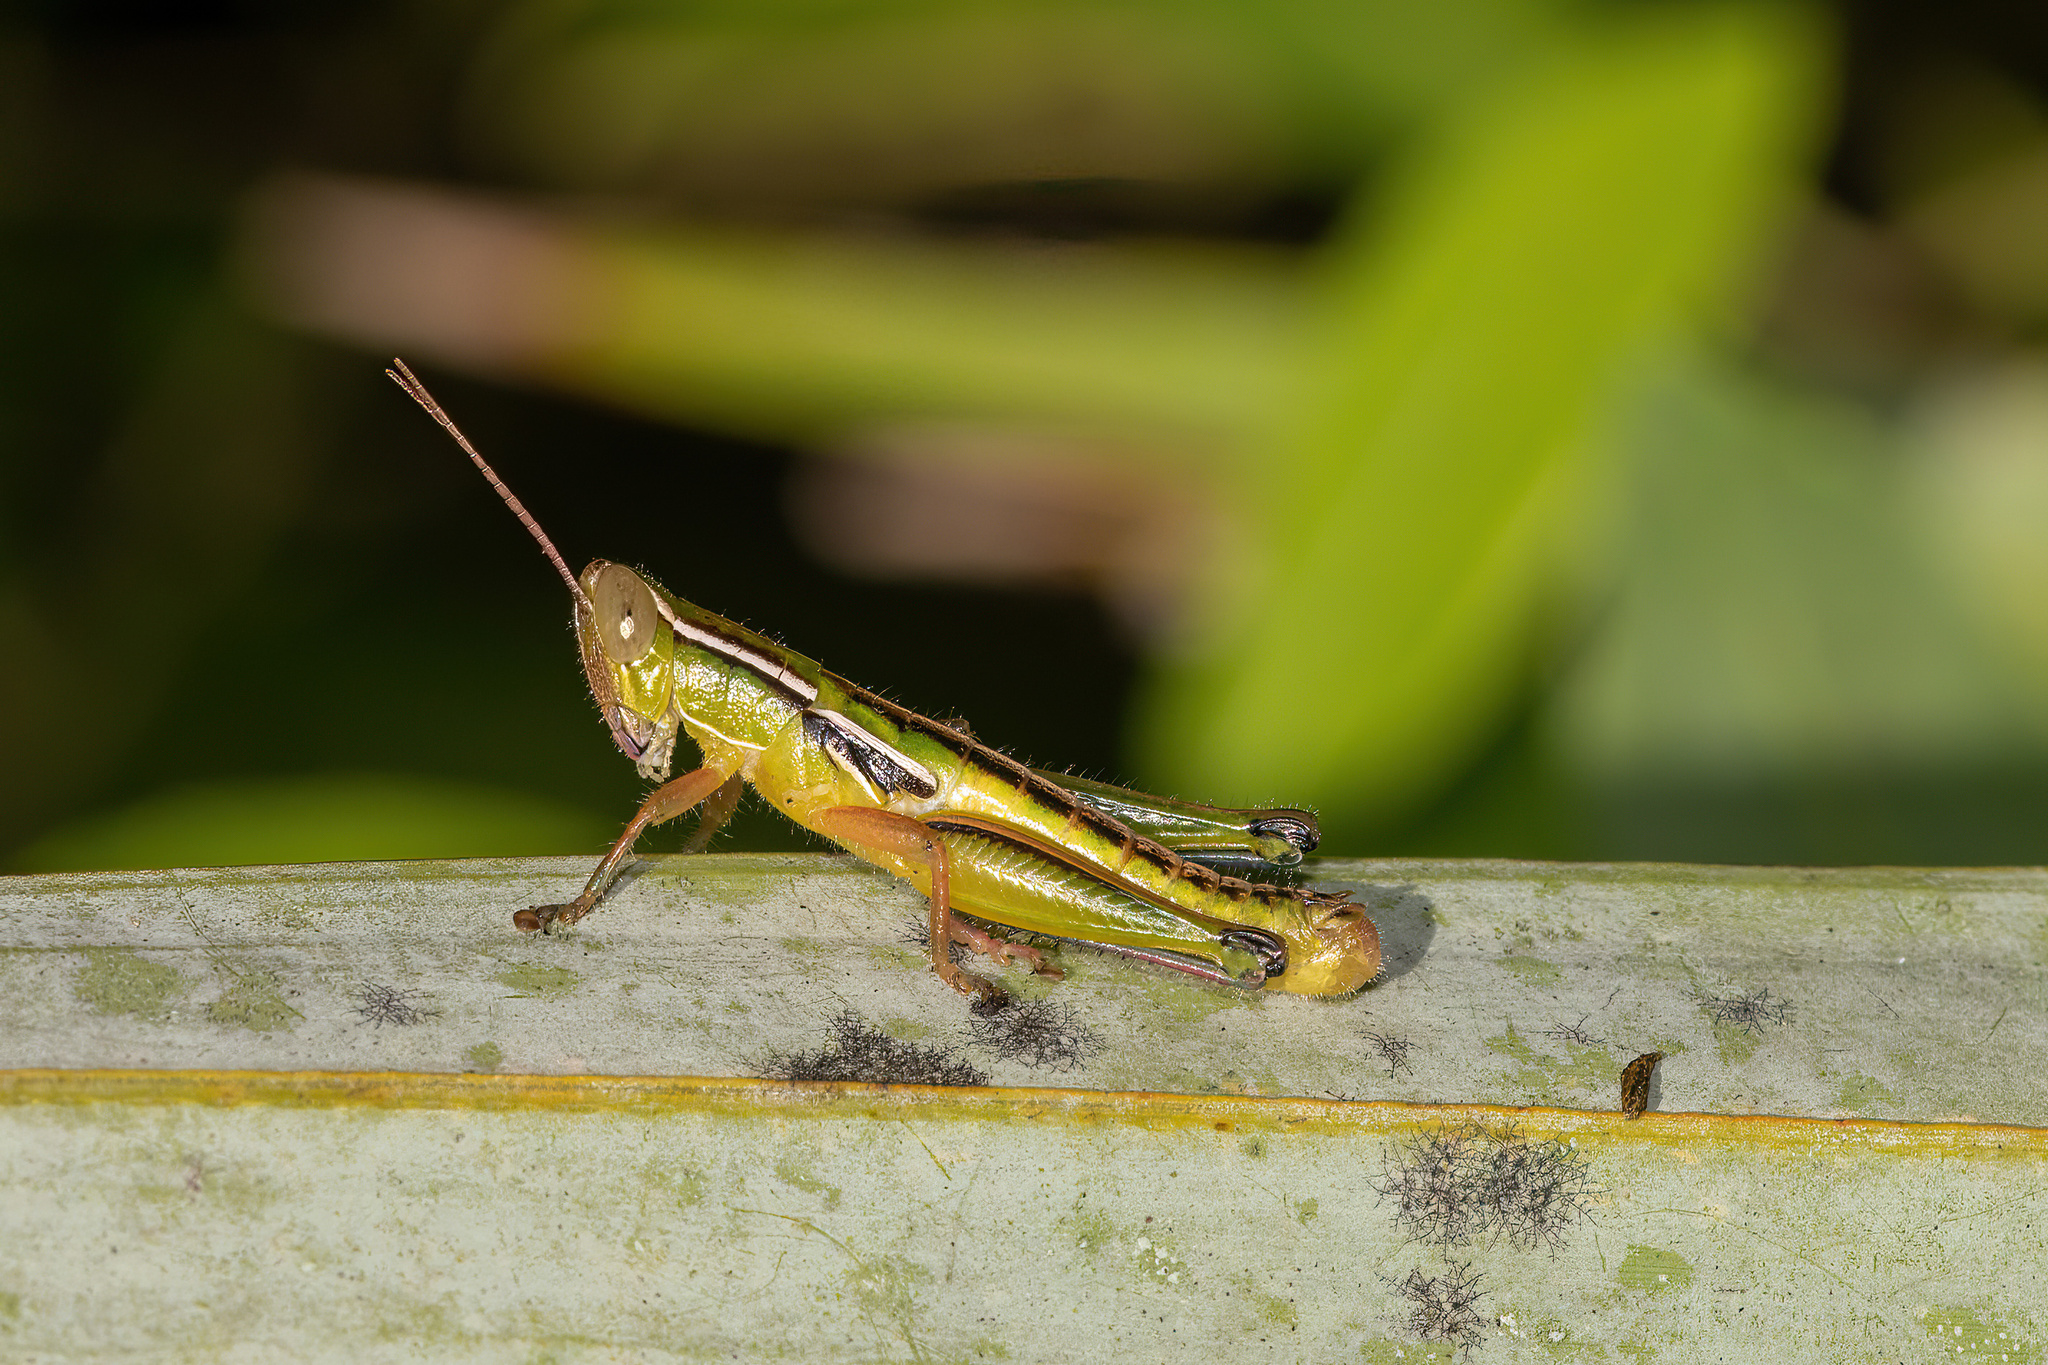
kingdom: Animalia
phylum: Arthropoda
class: Insecta
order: Orthoptera
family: Acrididae
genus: Aptenopedes
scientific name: Aptenopedes rufovittata
